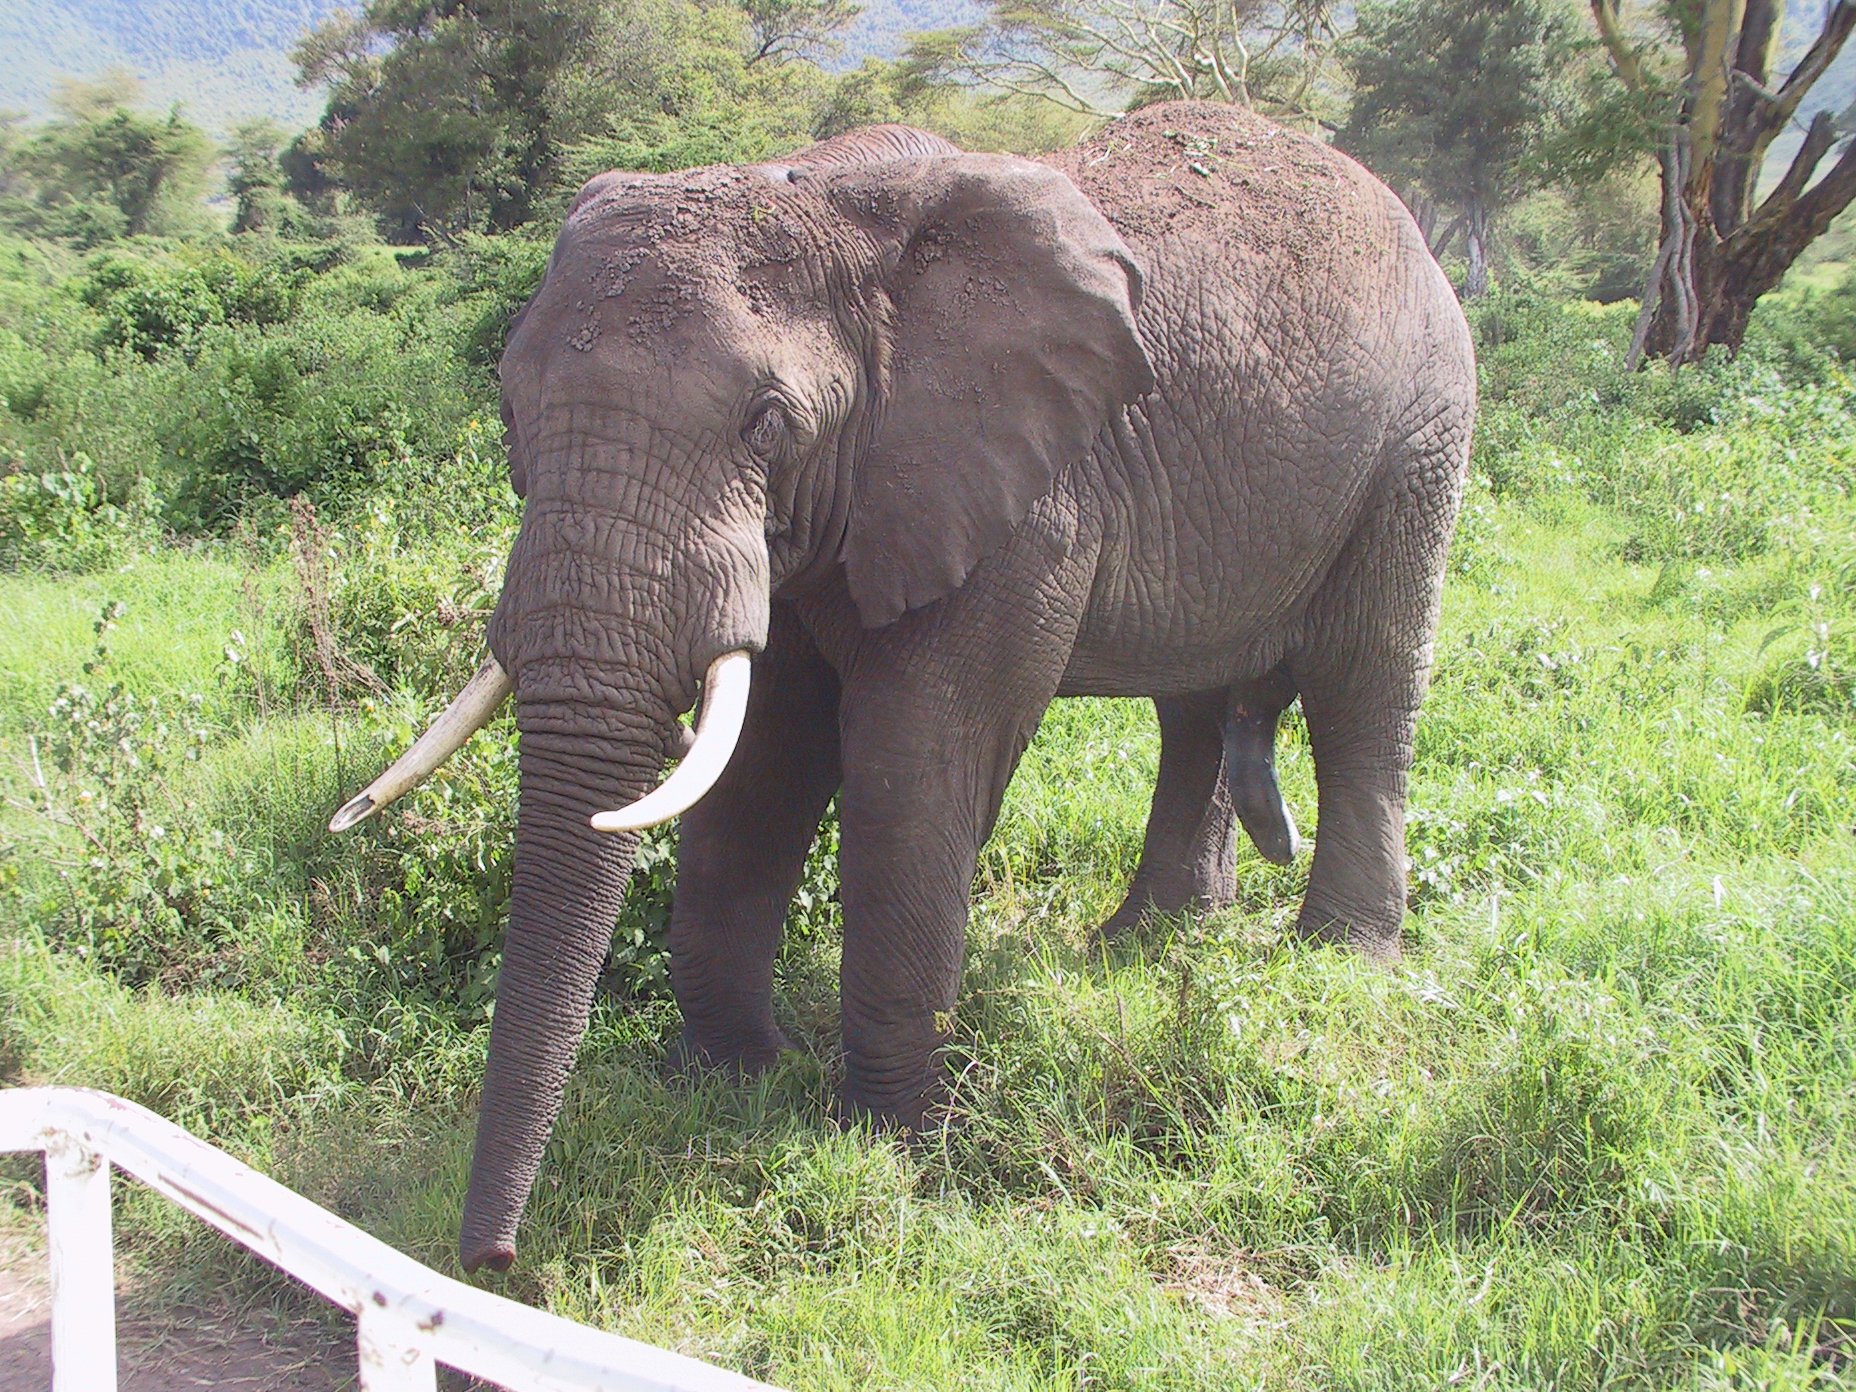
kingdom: Animalia
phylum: Chordata
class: Mammalia
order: Proboscidea
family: Elephantidae
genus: Loxodonta
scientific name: Loxodonta africana
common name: African elephant
